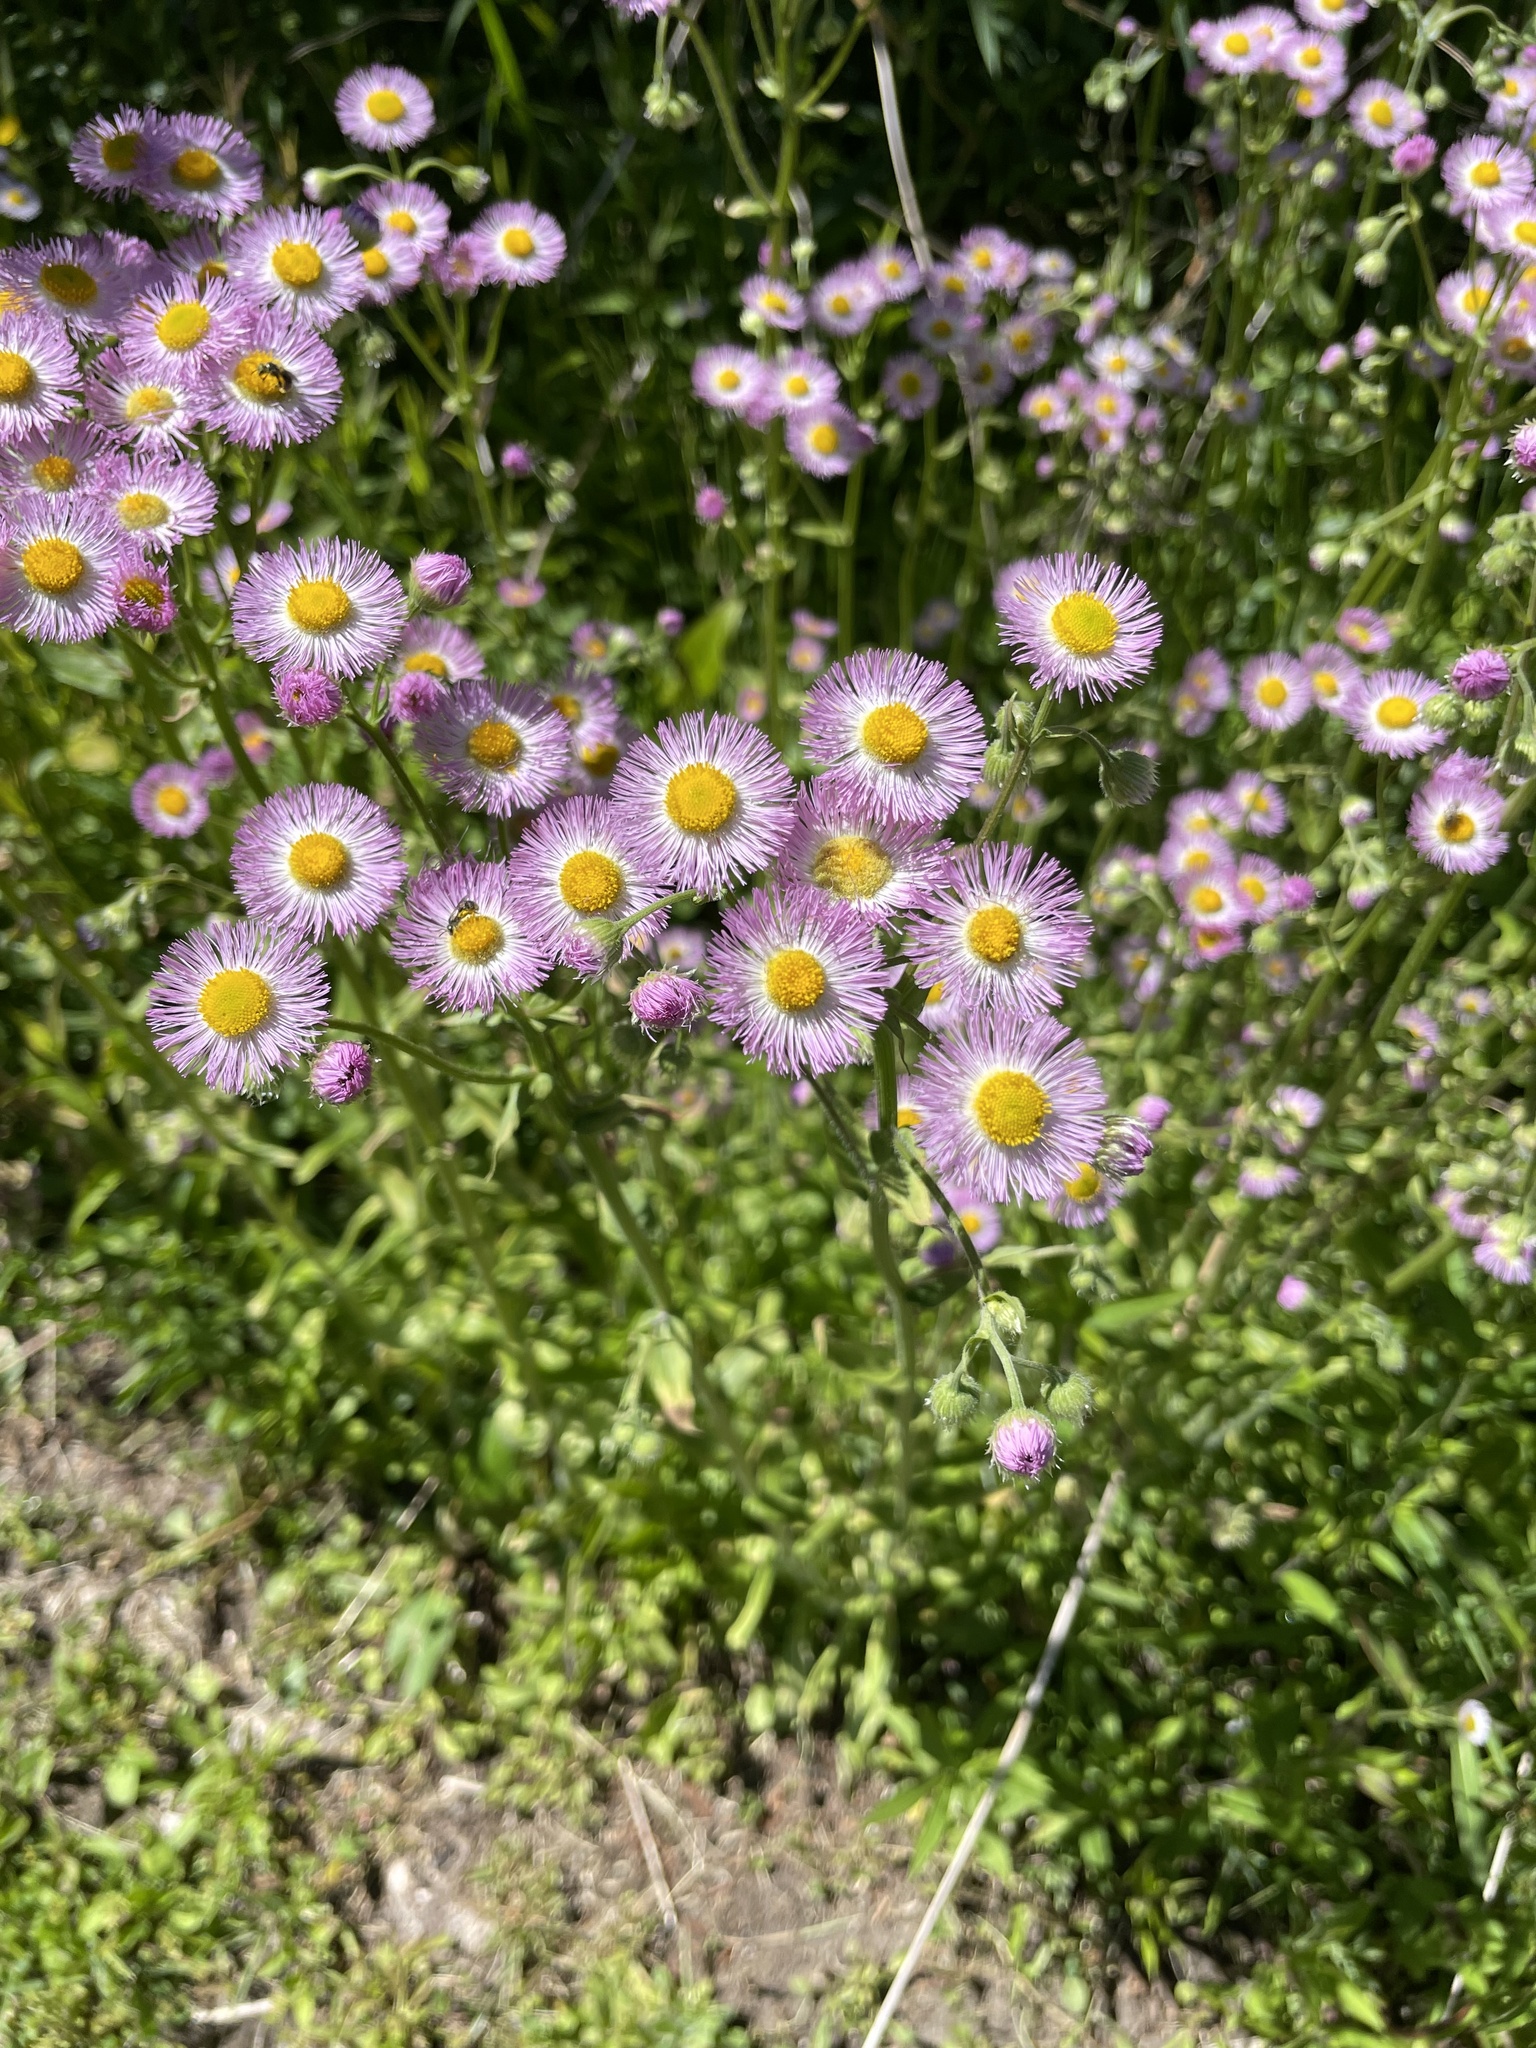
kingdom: Plantae
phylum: Tracheophyta
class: Magnoliopsida
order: Asterales
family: Asteraceae
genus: Erigeron
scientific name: Erigeron philadelphicus
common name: Robin's-plantain
